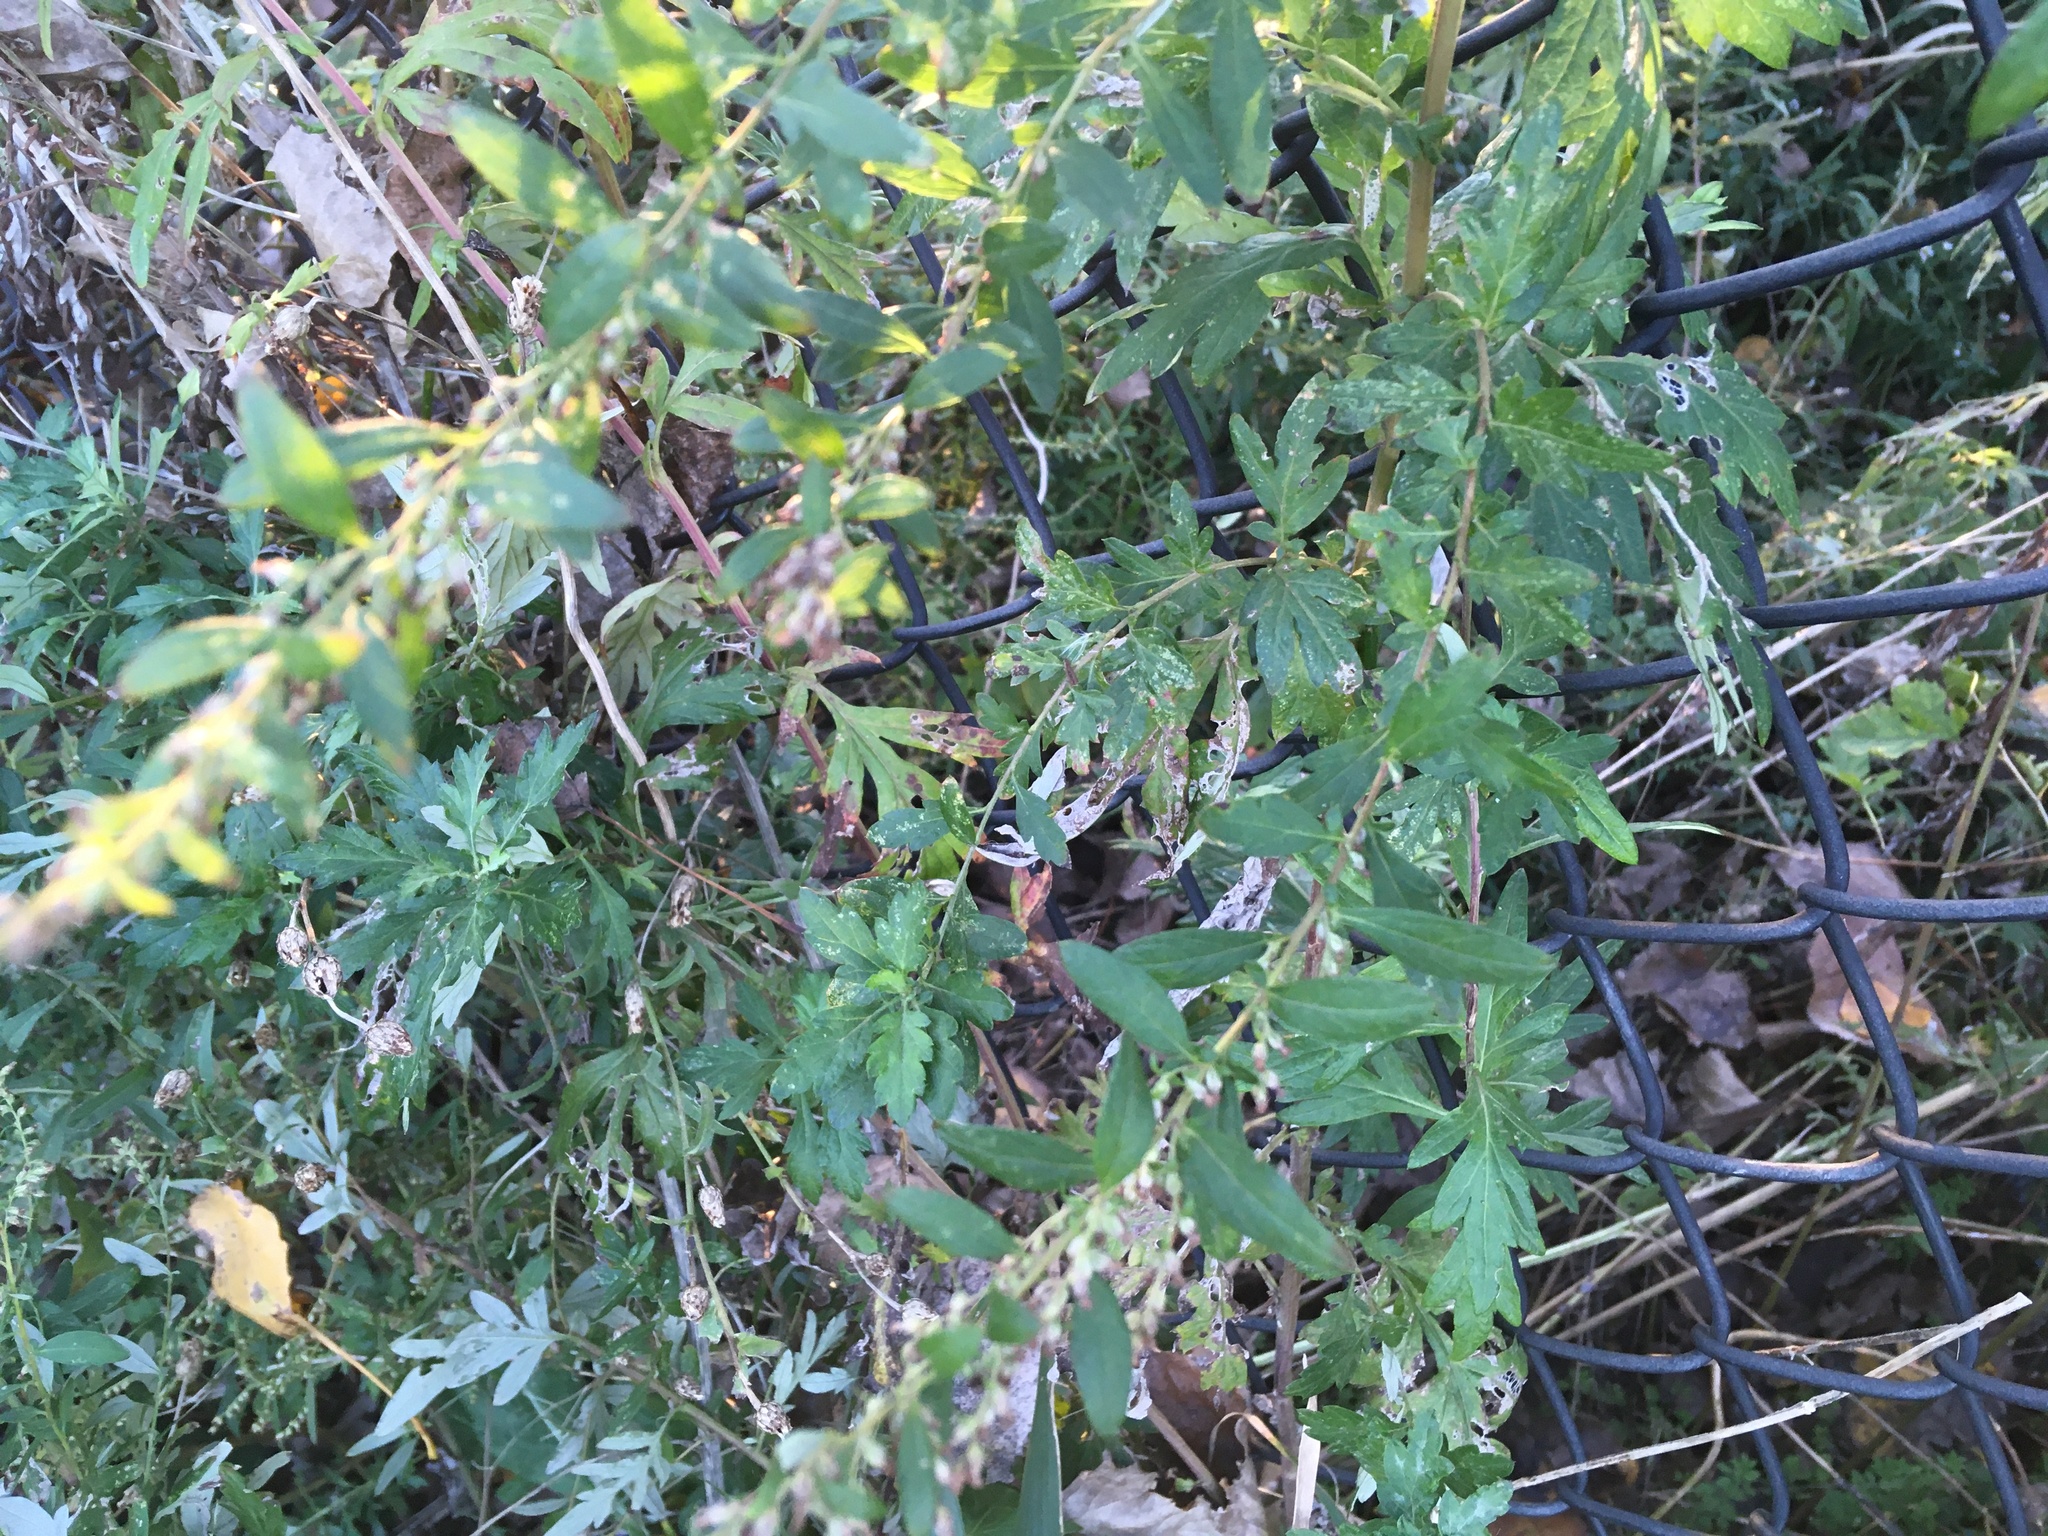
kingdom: Plantae
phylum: Tracheophyta
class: Magnoliopsida
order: Asterales
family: Asteraceae
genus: Artemisia
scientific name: Artemisia vulgaris
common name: Mugwort
